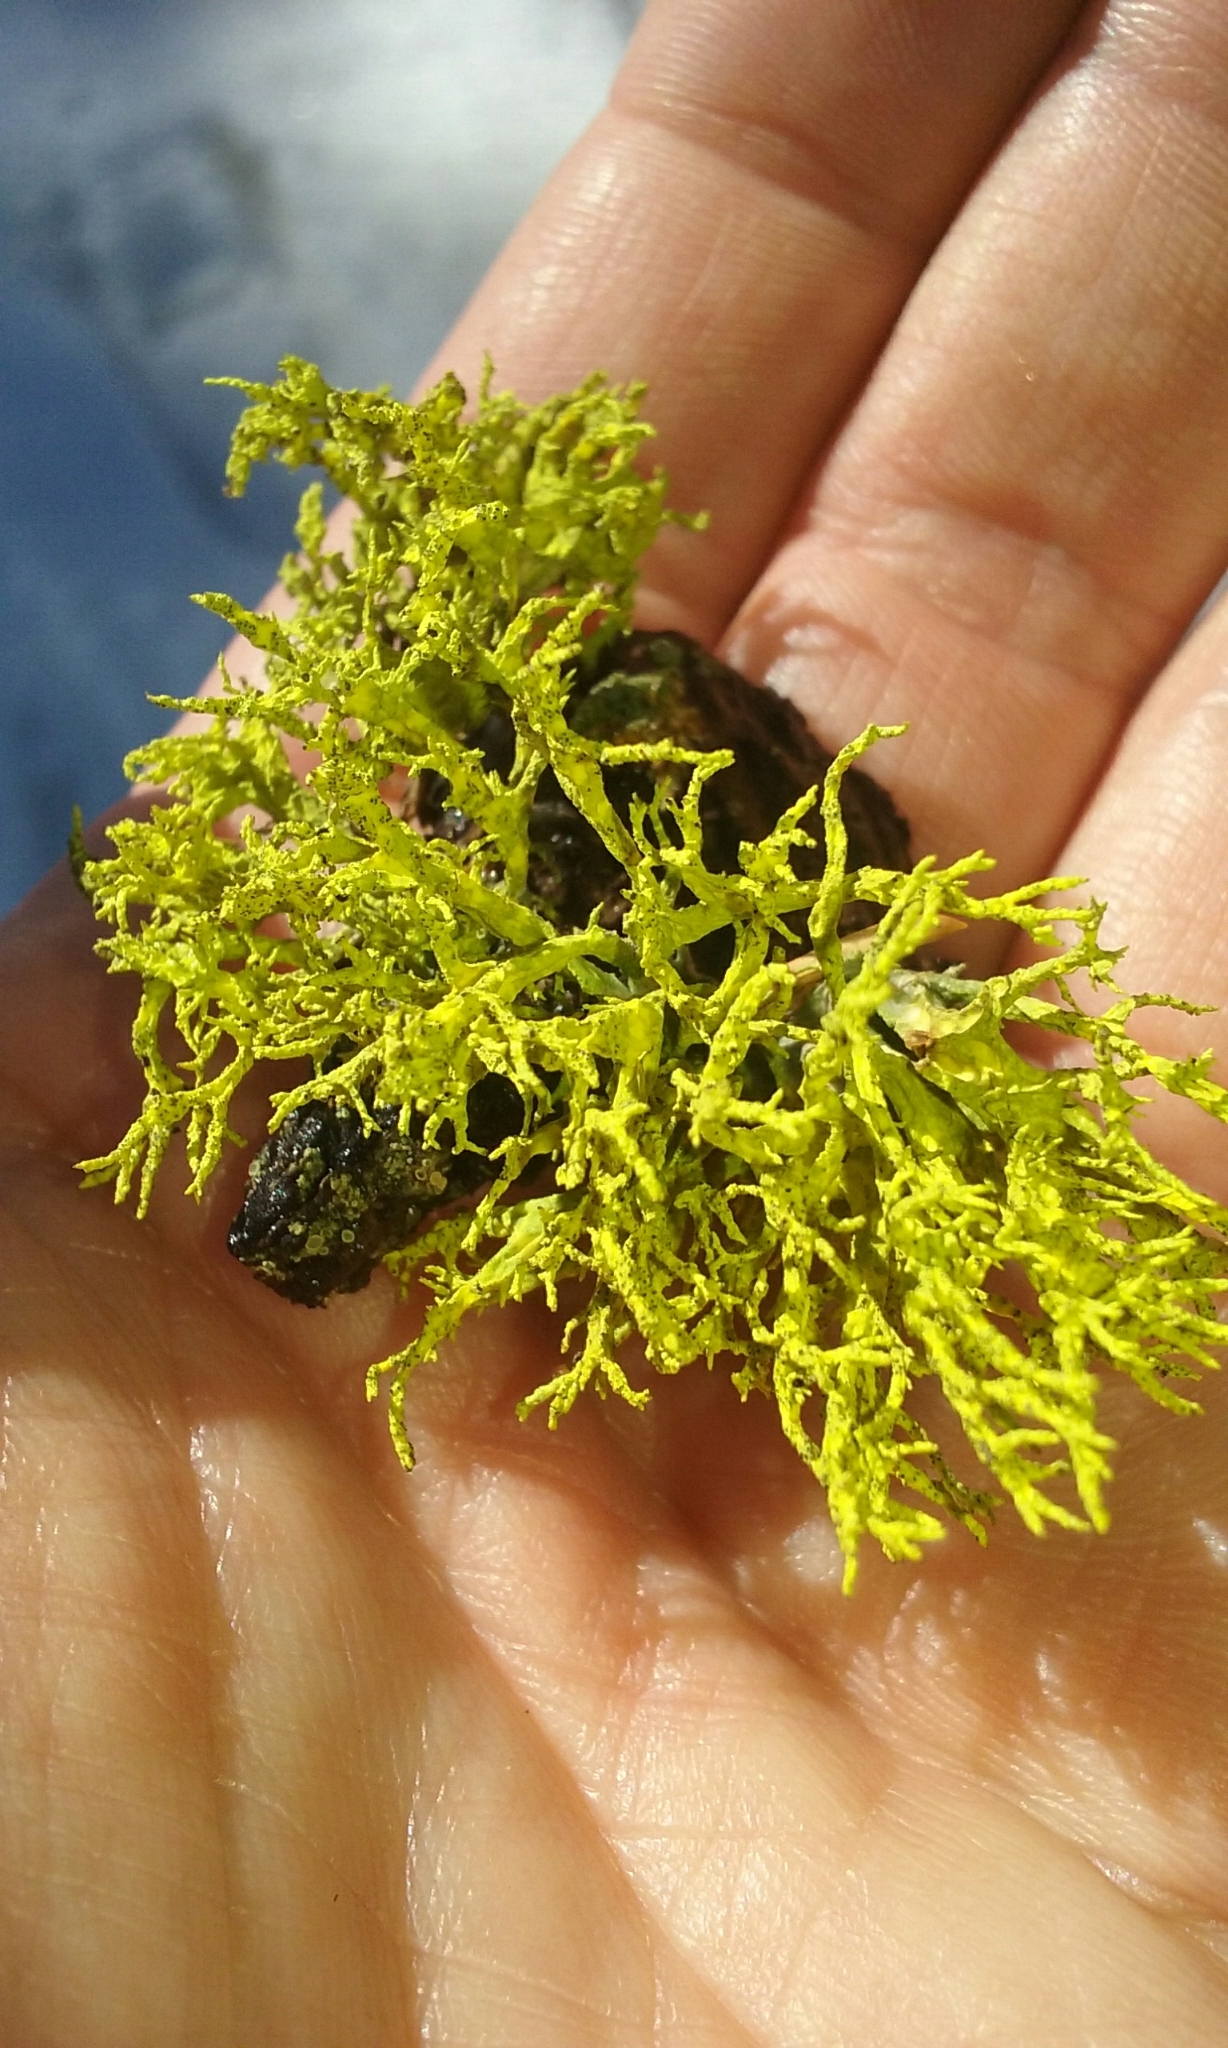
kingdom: Fungi
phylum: Ascomycota
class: Lecanoromycetes
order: Lecanorales
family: Parmeliaceae
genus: Letharia
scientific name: Letharia vulpina
